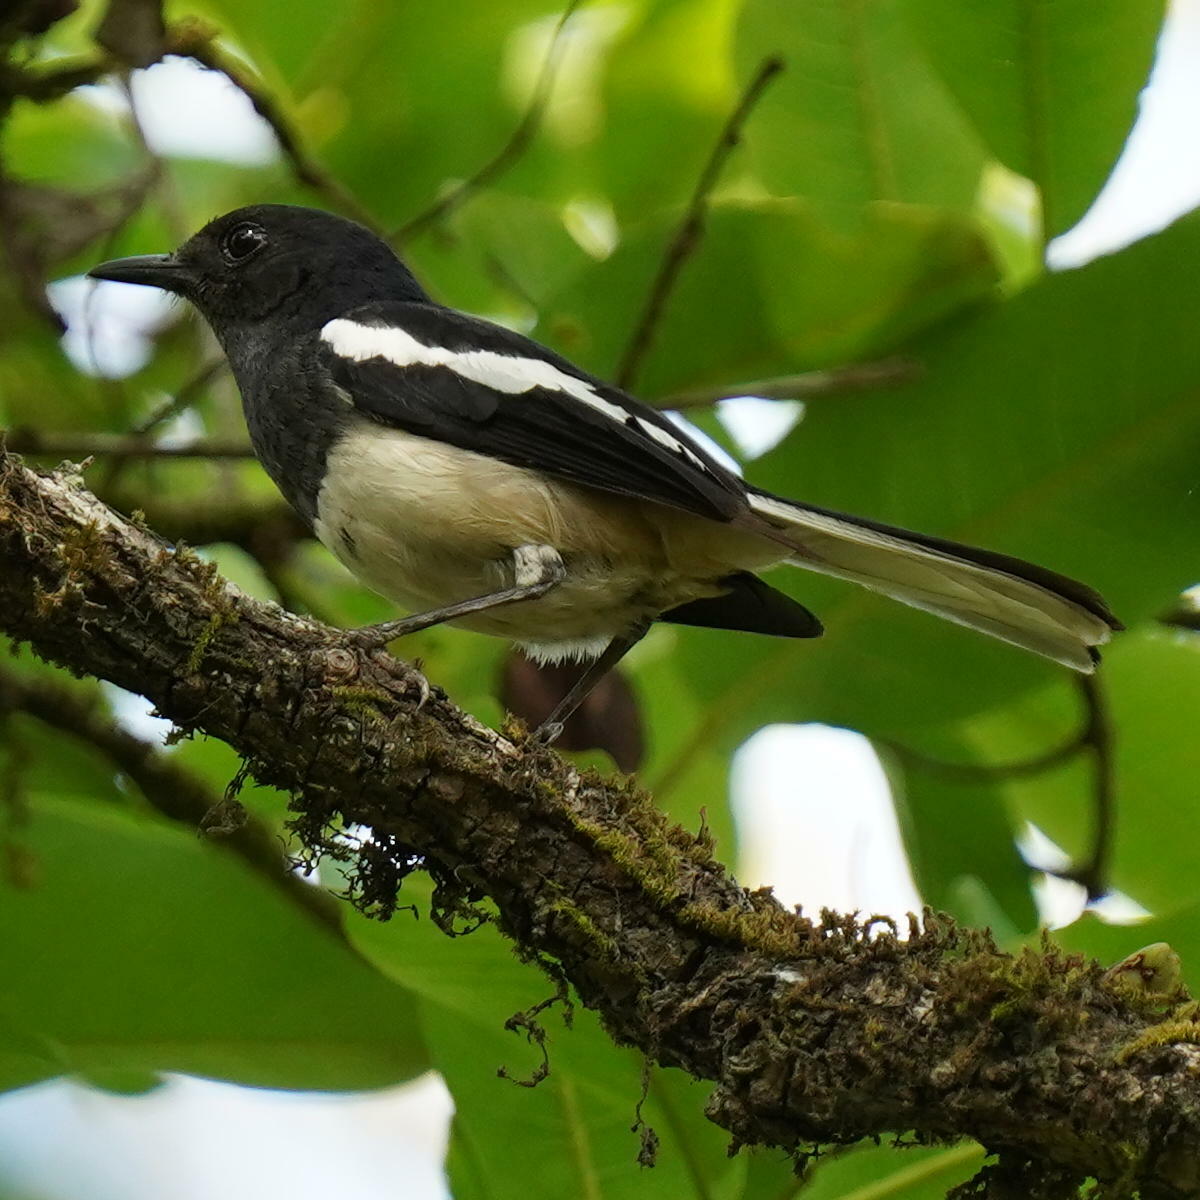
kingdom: Animalia
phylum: Chordata
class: Aves
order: Passeriformes
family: Muscicapidae
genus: Copsychus
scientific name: Copsychus saularis
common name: Oriental magpie-robin
